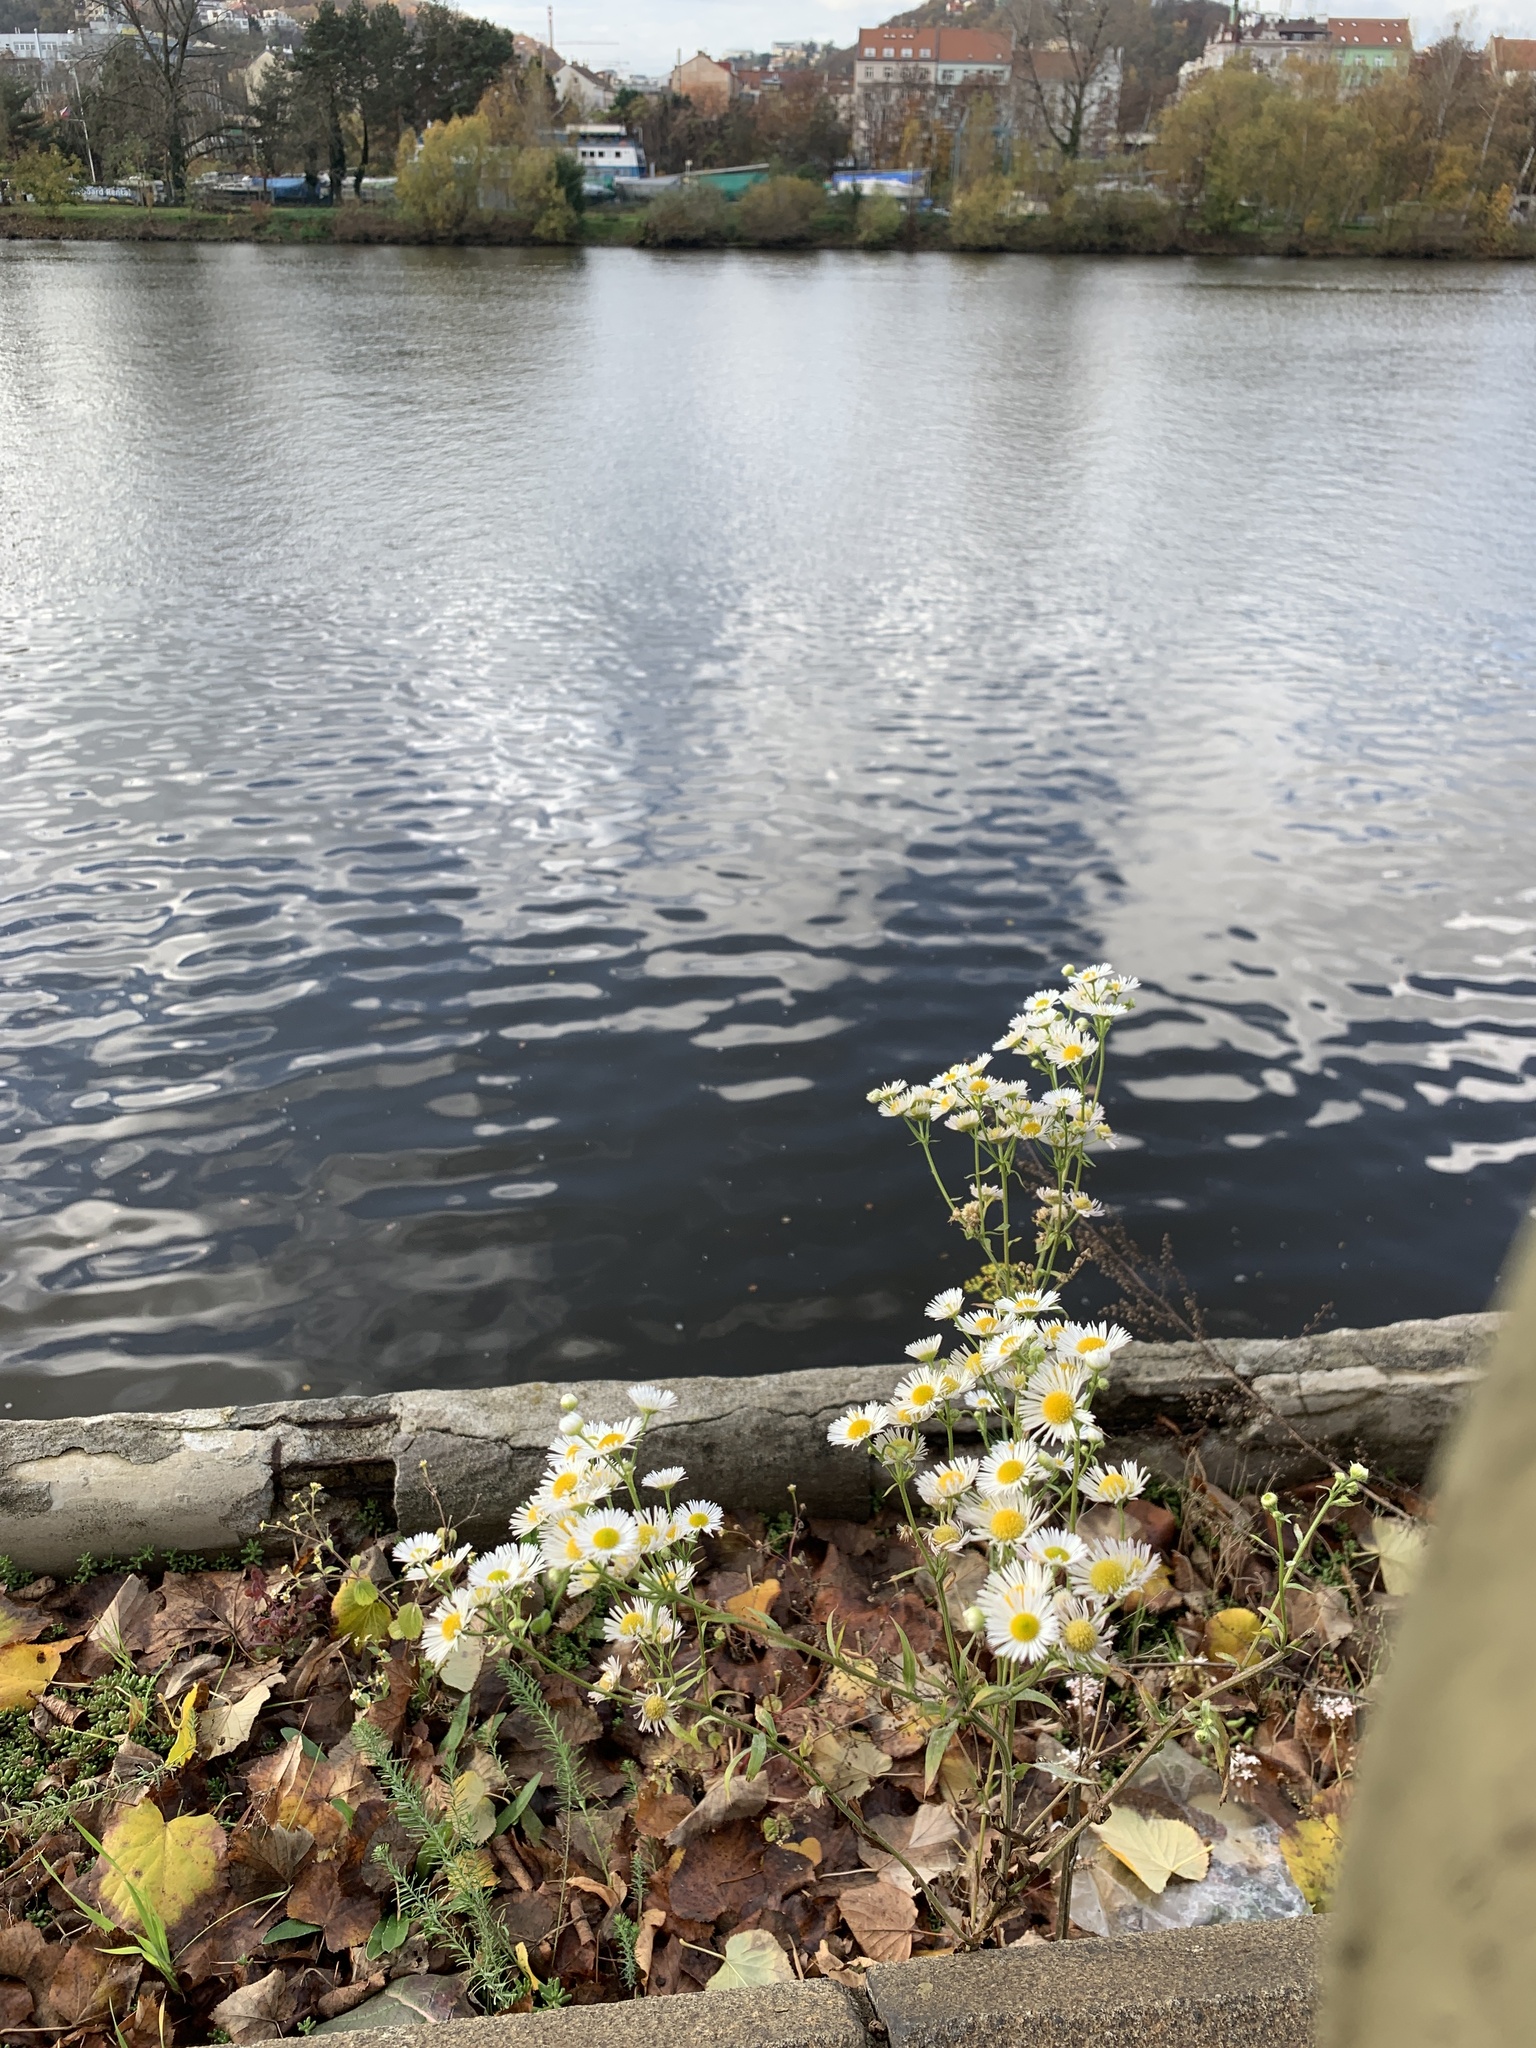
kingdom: Plantae
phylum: Tracheophyta
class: Magnoliopsida
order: Asterales
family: Asteraceae
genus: Erigeron
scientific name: Erigeron annuus
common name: Tall fleabane
